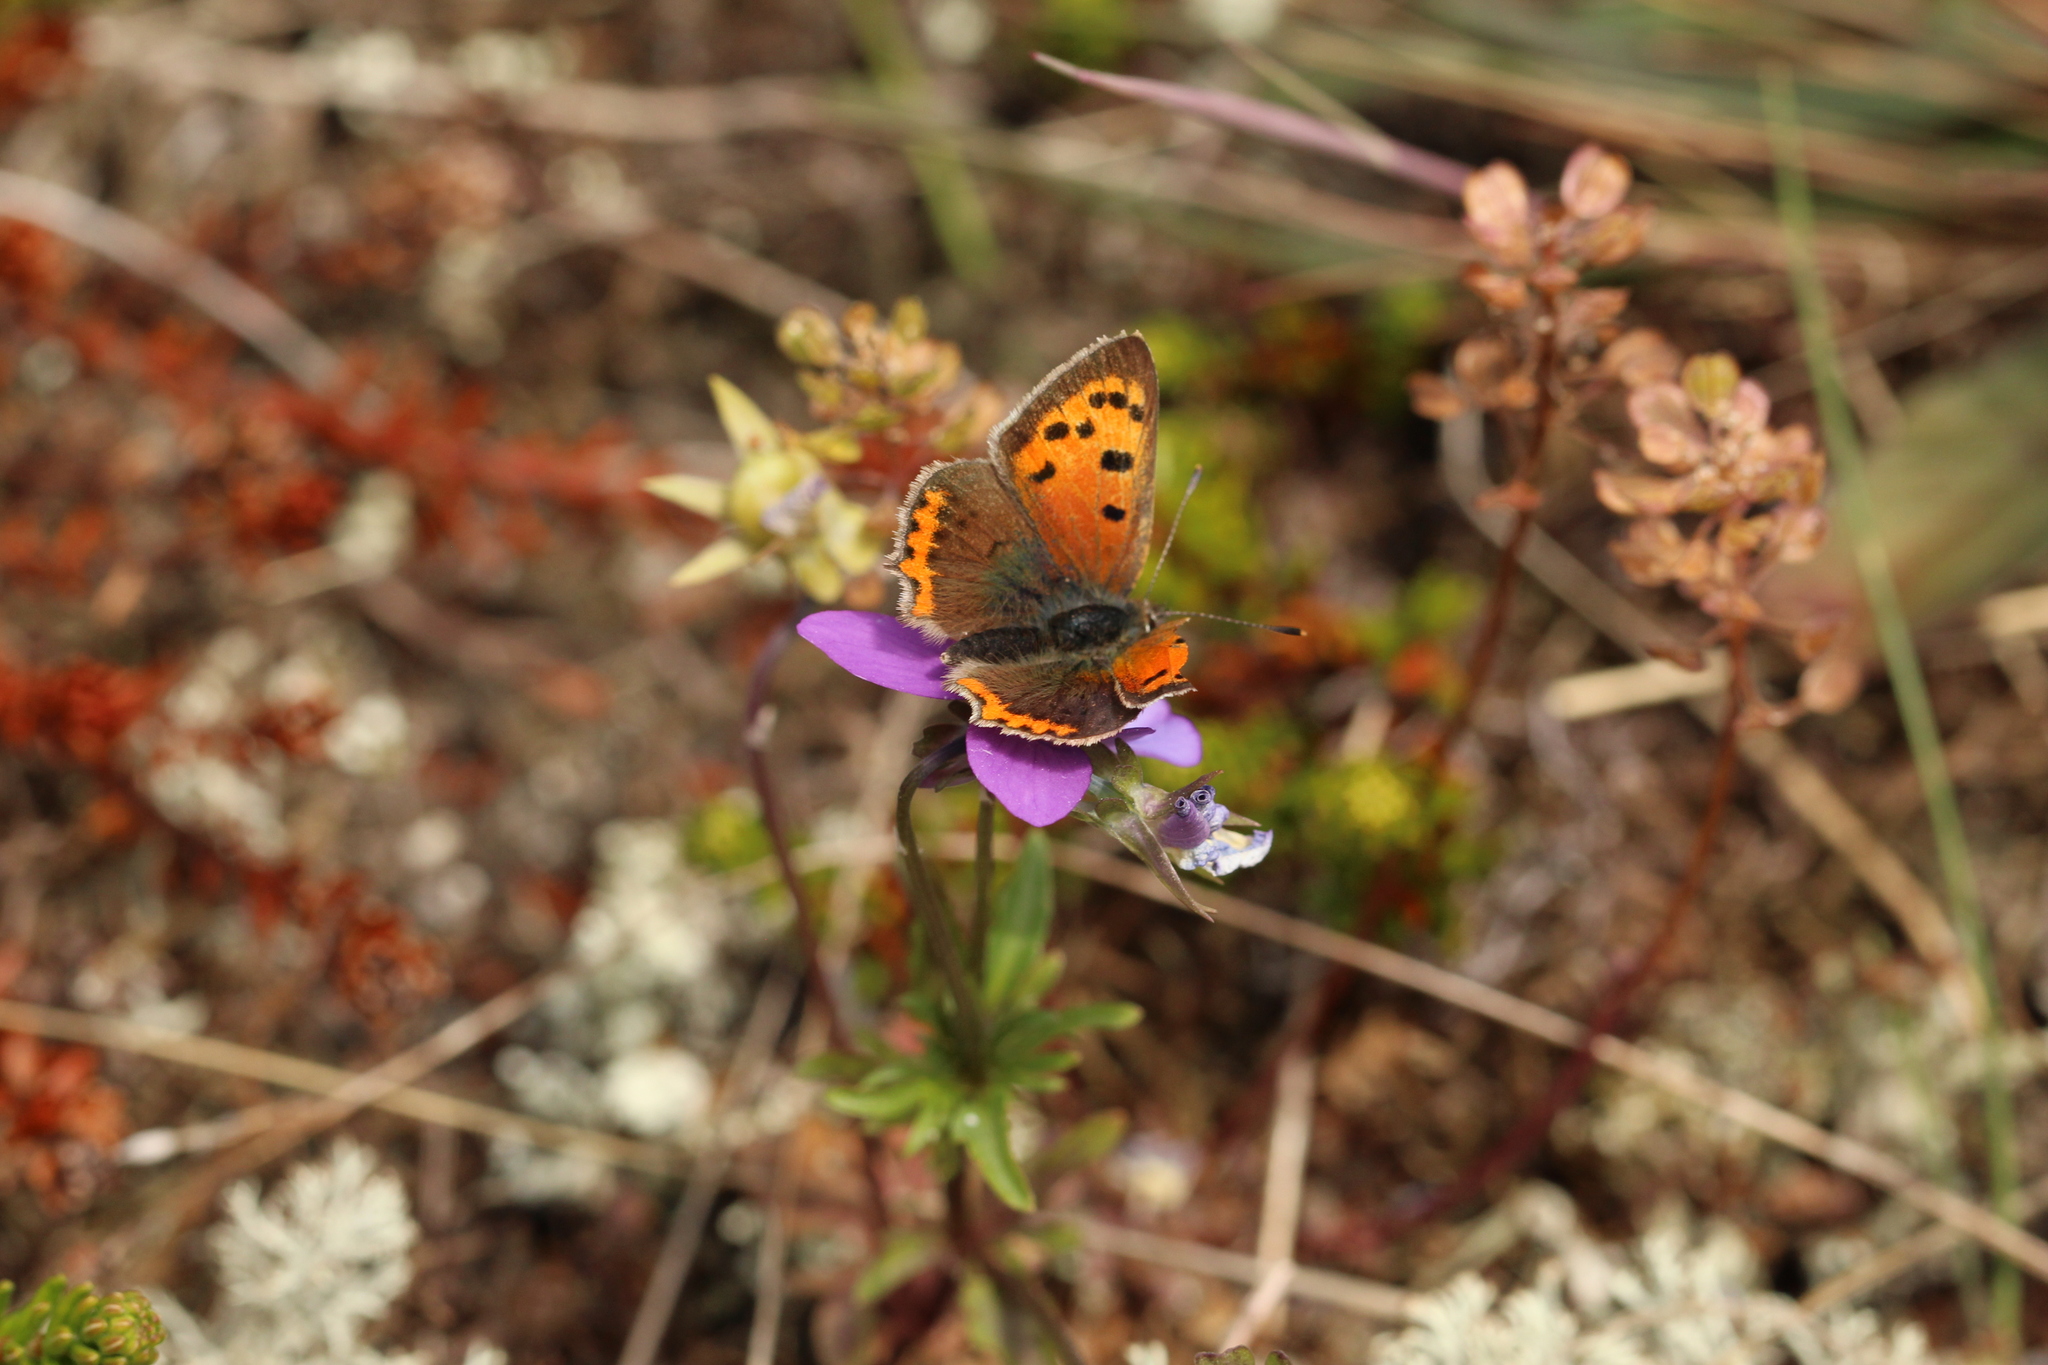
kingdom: Animalia
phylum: Arthropoda
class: Insecta
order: Lepidoptera
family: Lycaenidae
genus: Lycaena
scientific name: Lycaena phlaeas
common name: Small copper
